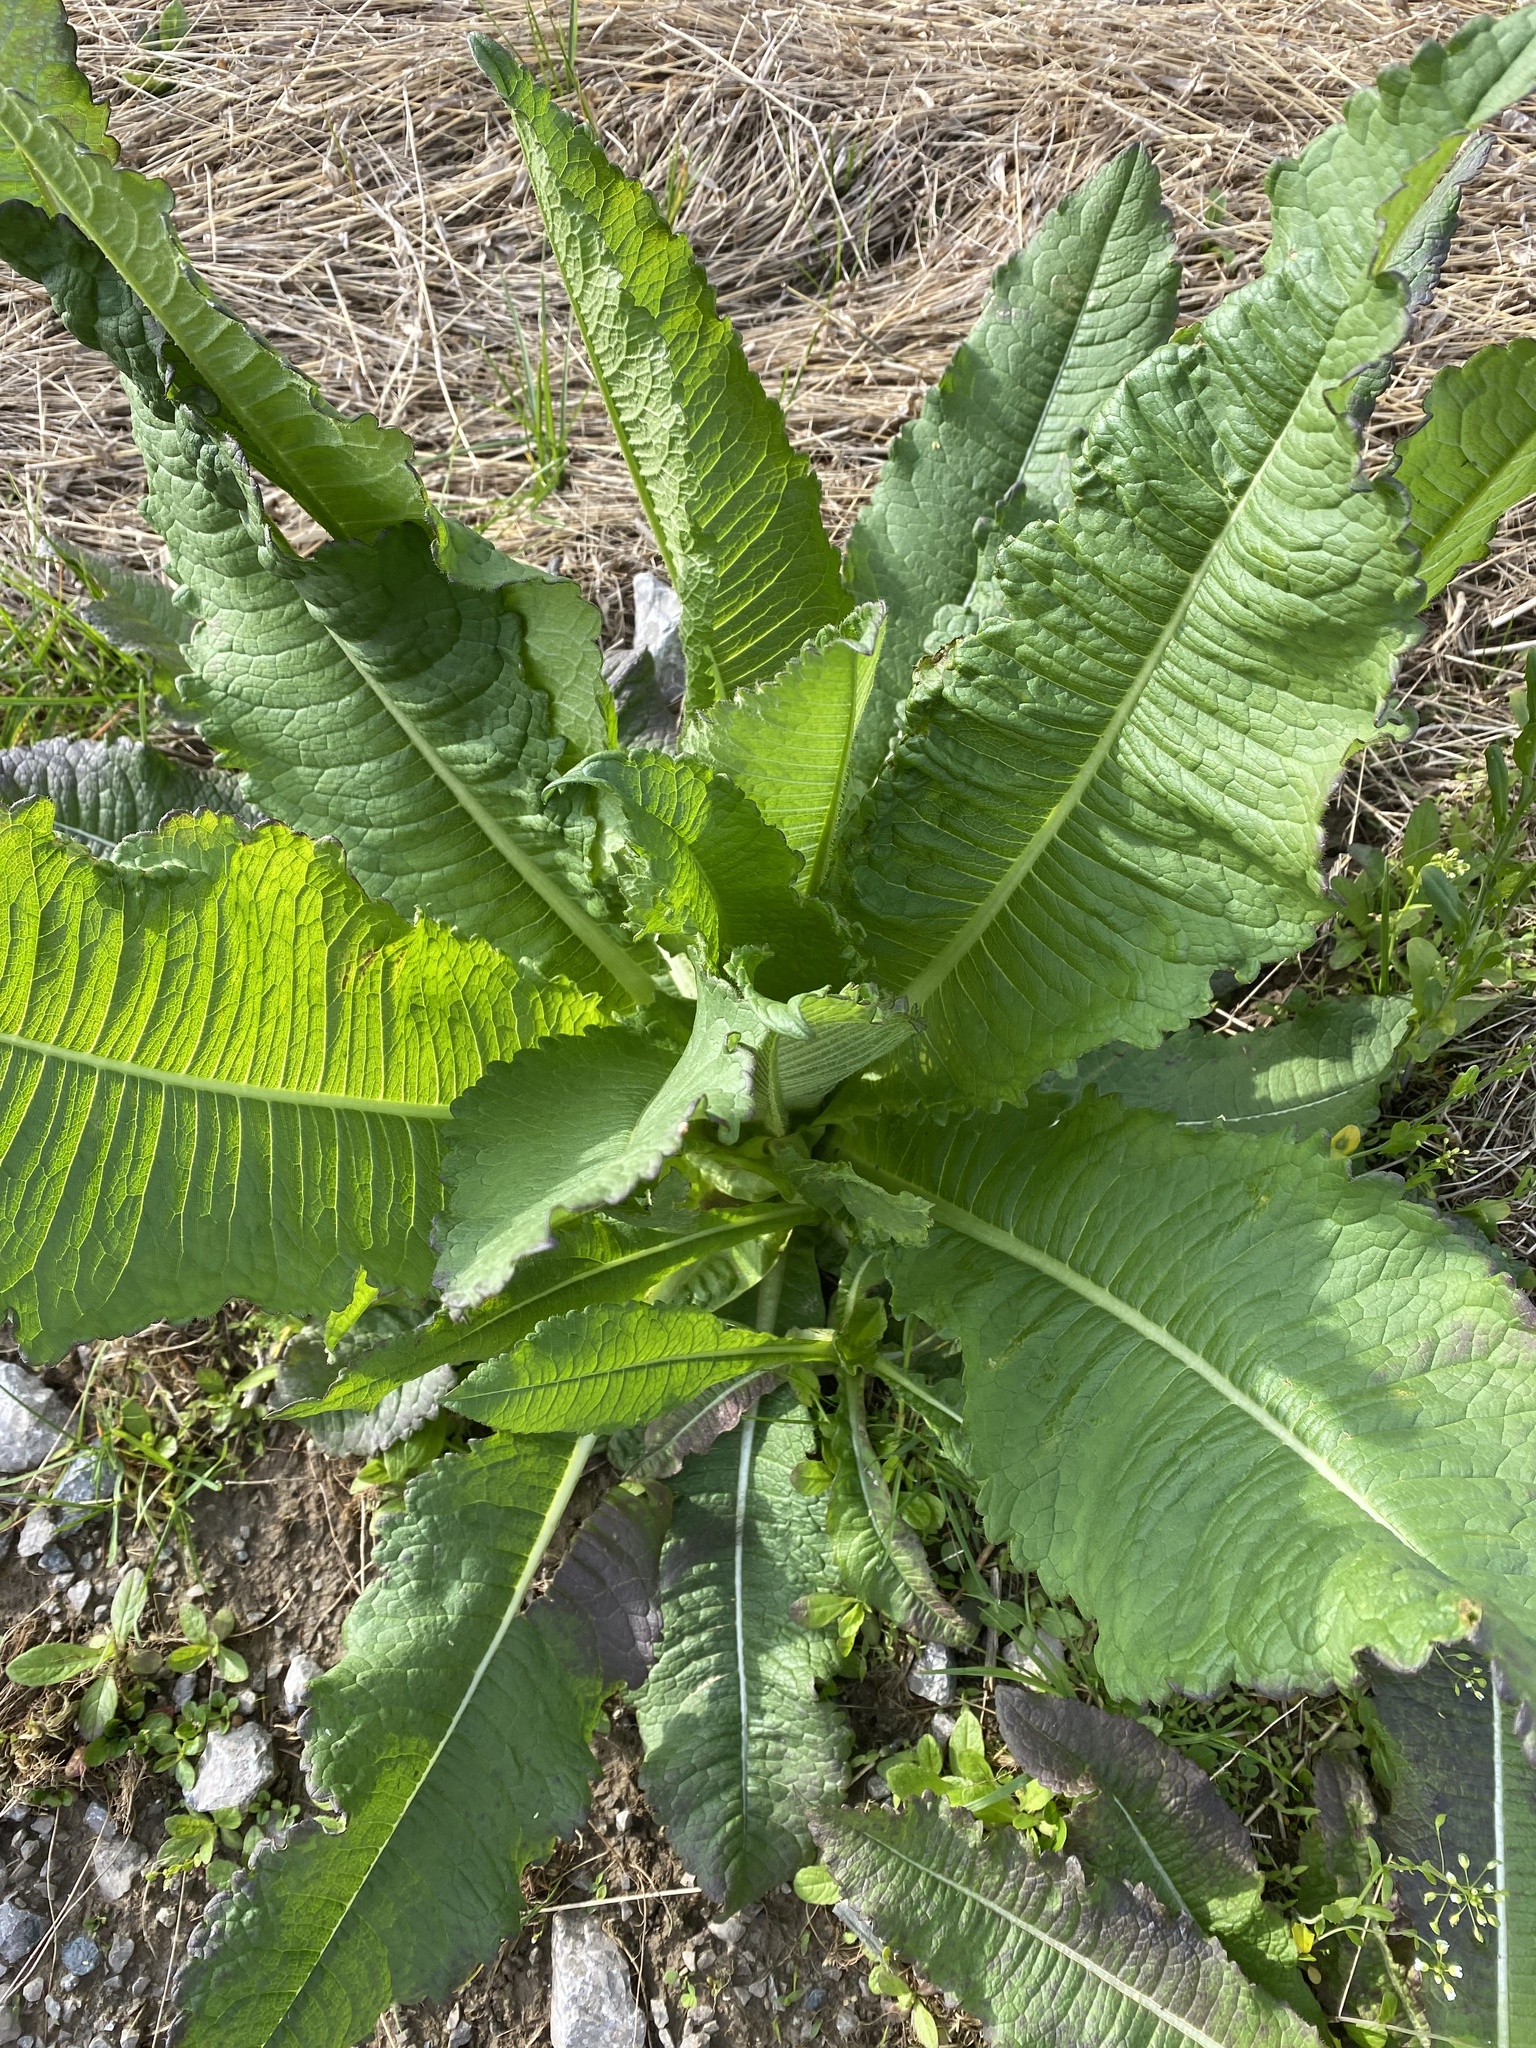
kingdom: Plantae
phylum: Tracheophyta
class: Magnoliopsida
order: Dipsacales
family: Caprifoliaceae
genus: Dipsacus
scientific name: Dipsacus laciniatus
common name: Cut-leaved teasel
